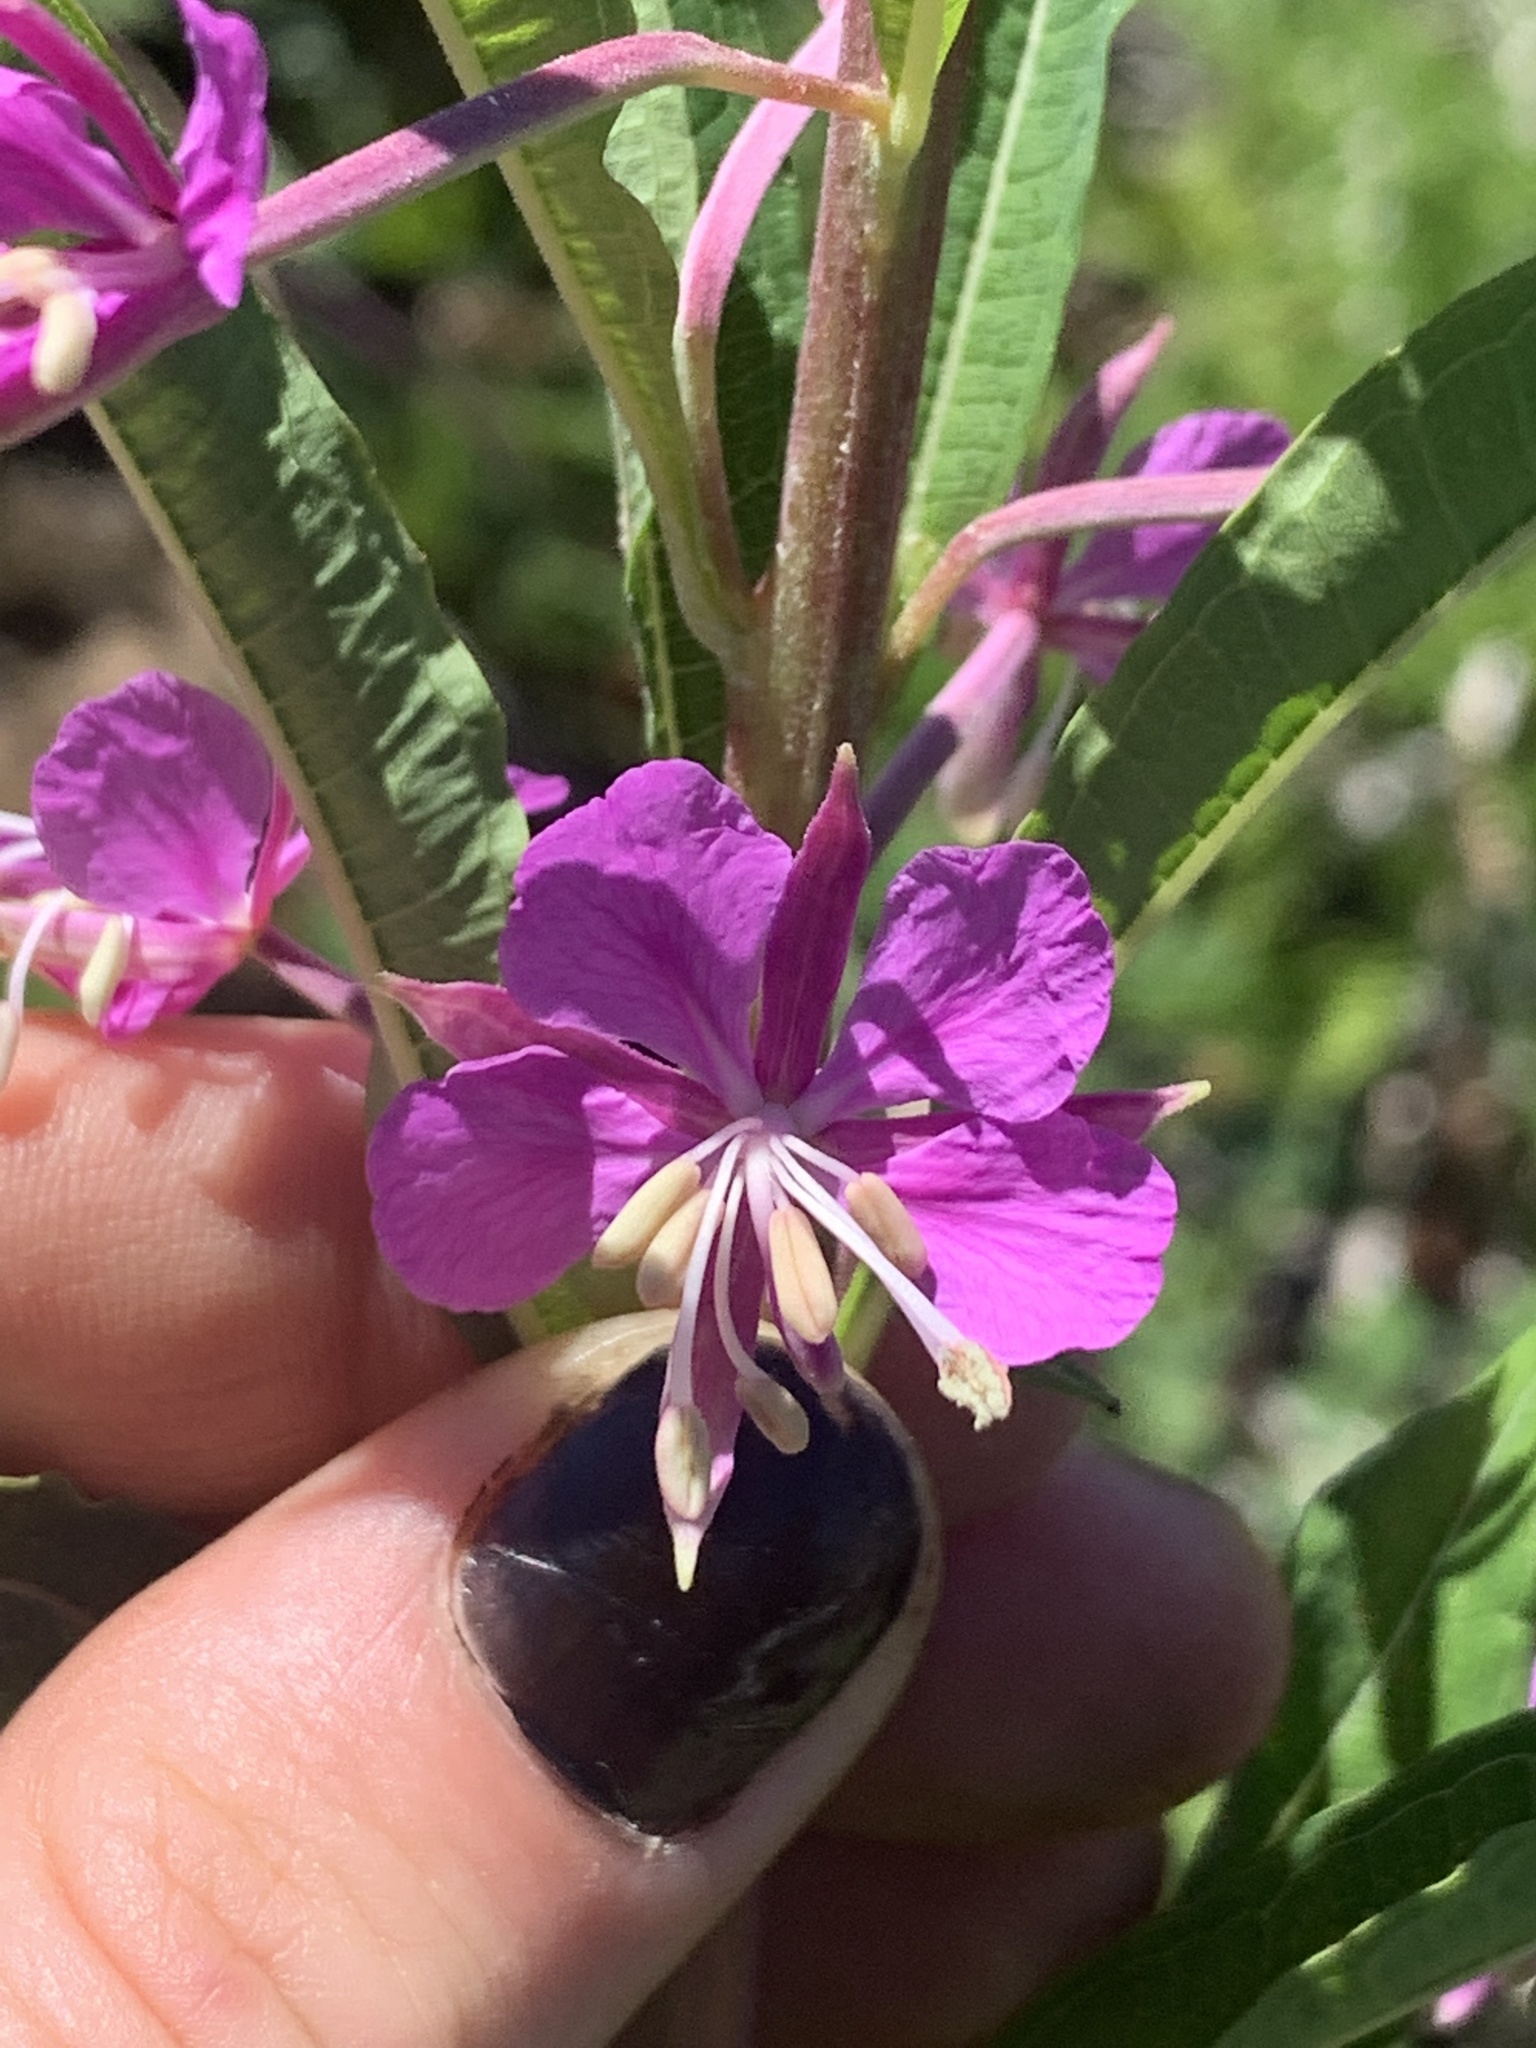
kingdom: Plantae
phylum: Tracheophyta
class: Magnoliopsida
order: Myrtales
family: Onagraceae
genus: Chamaenerion
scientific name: Chamaenerion angustifolium
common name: Fireweed
